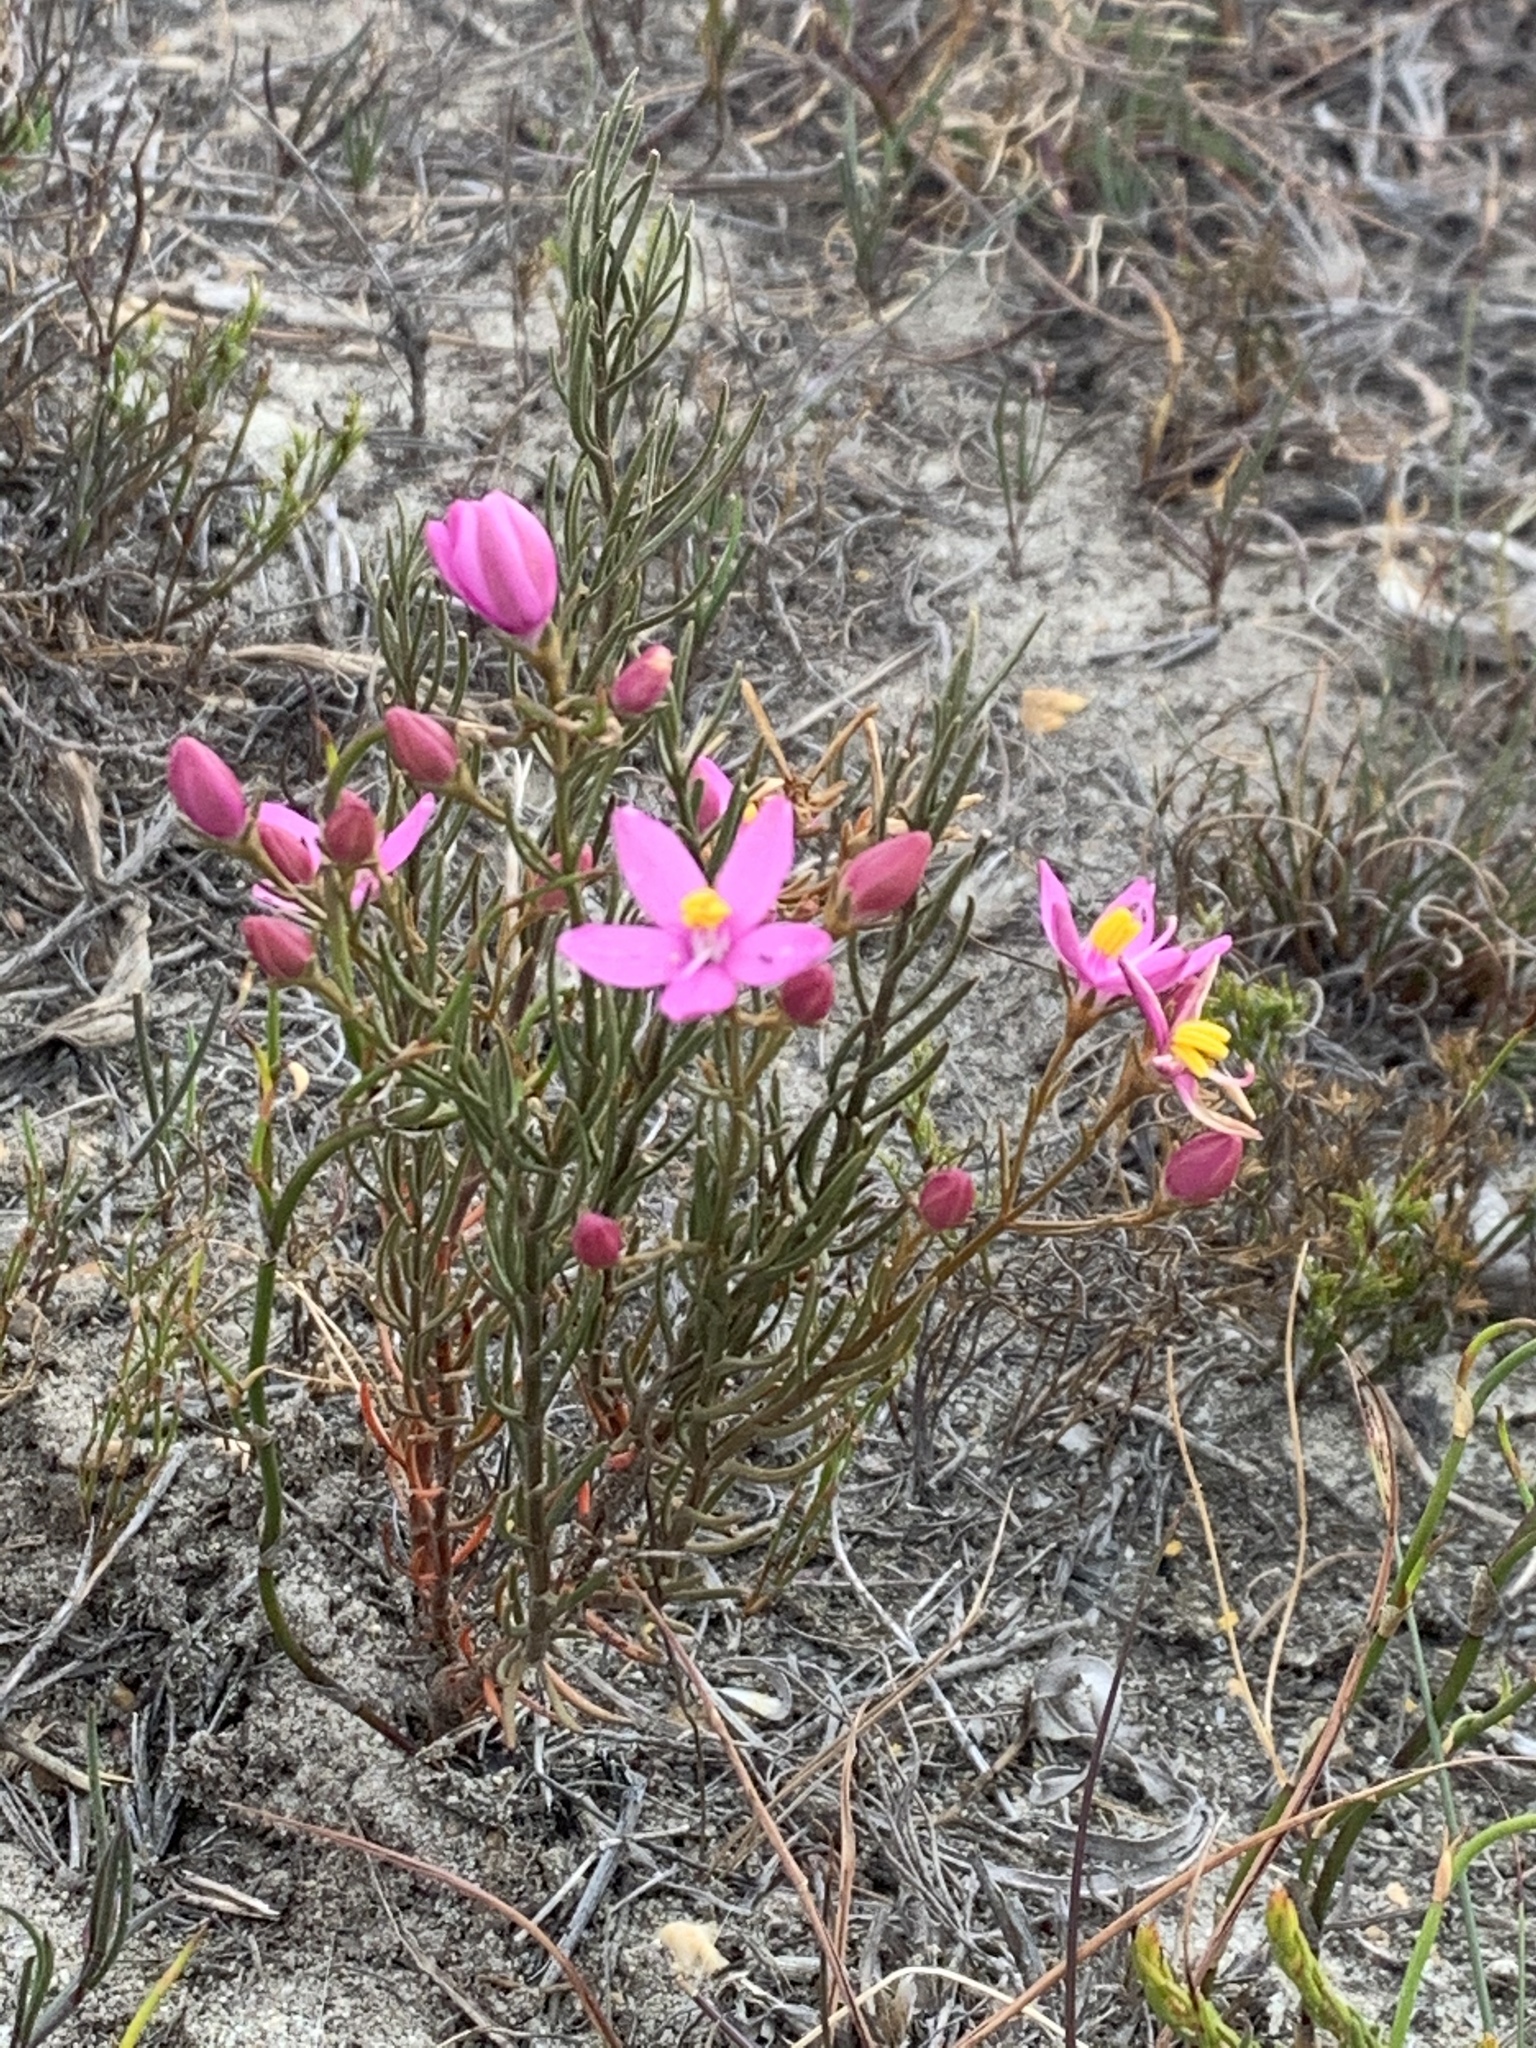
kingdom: Plantae
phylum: Tracheophyta
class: Magnoliopsida
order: Gentianales
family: Gentianaceae
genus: Orphium
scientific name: Orphium frutescens
